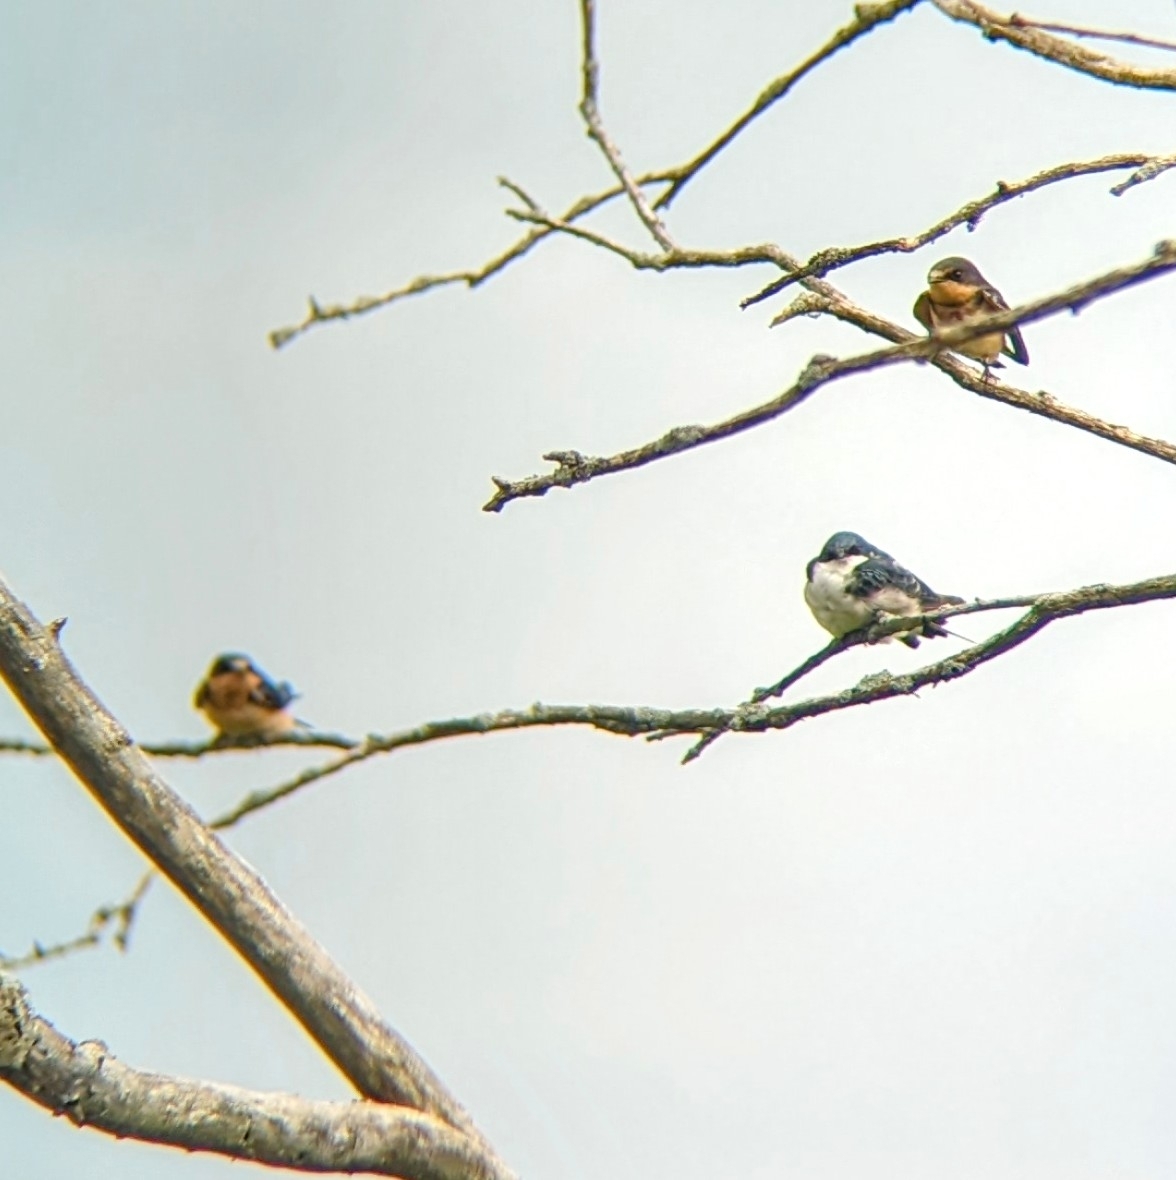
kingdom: Animalia
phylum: Chordata
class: Aves
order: Passeriformes
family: Hirundinidae
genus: Tachycineta
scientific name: Tachycineta bicolor
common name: Tree swallow
